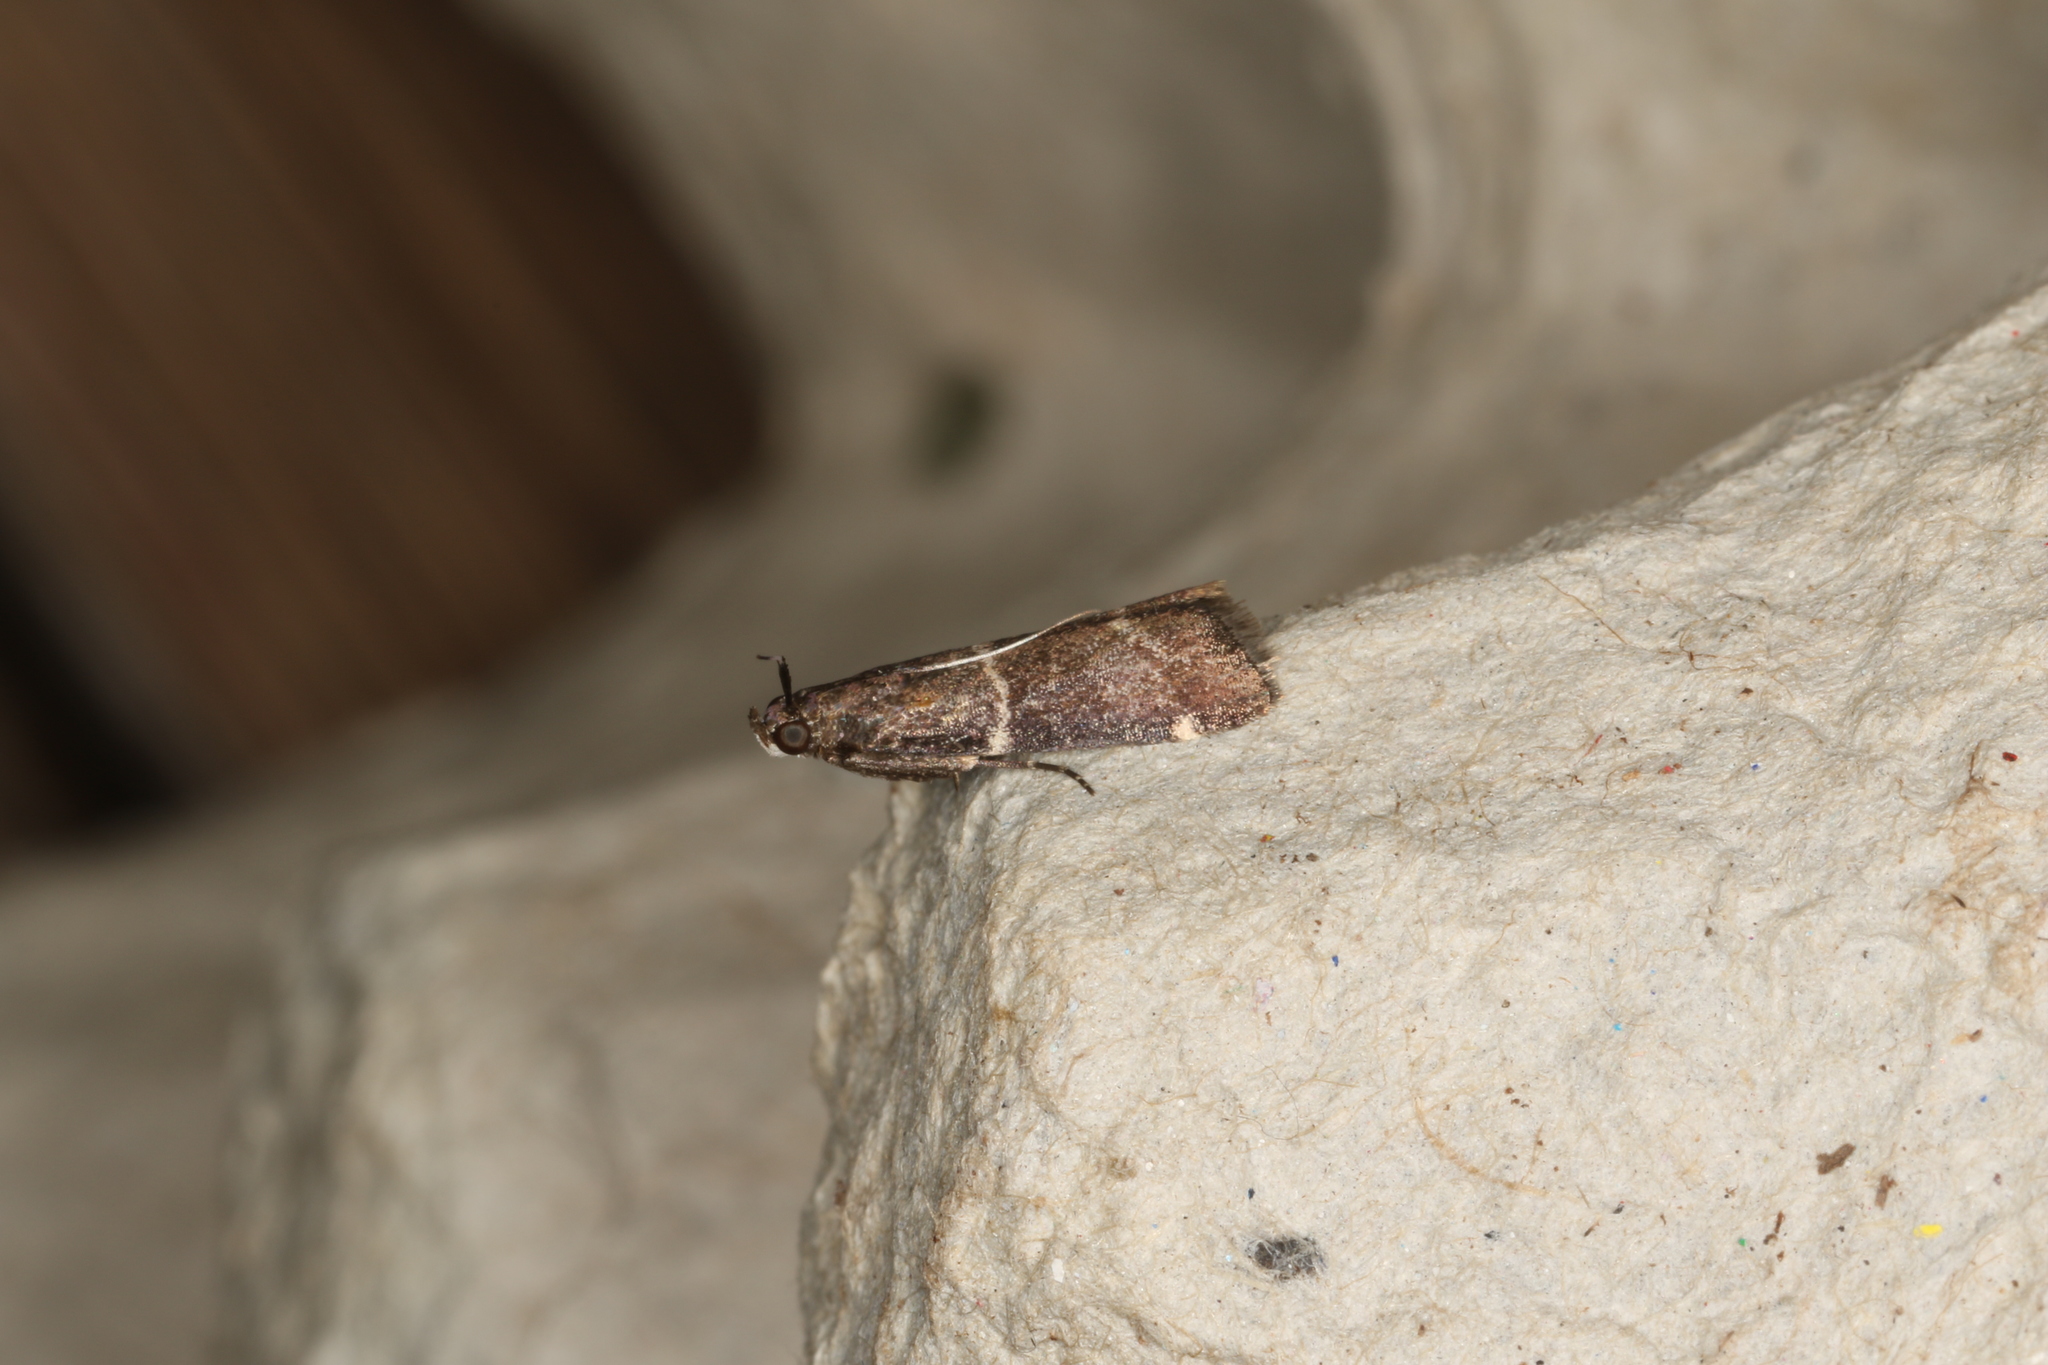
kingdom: Animalia
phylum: Arthropoda
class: Insecta
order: Lepidoptera
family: Pyralidae
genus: Lasiosticha
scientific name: Lasiosticha canilinea
